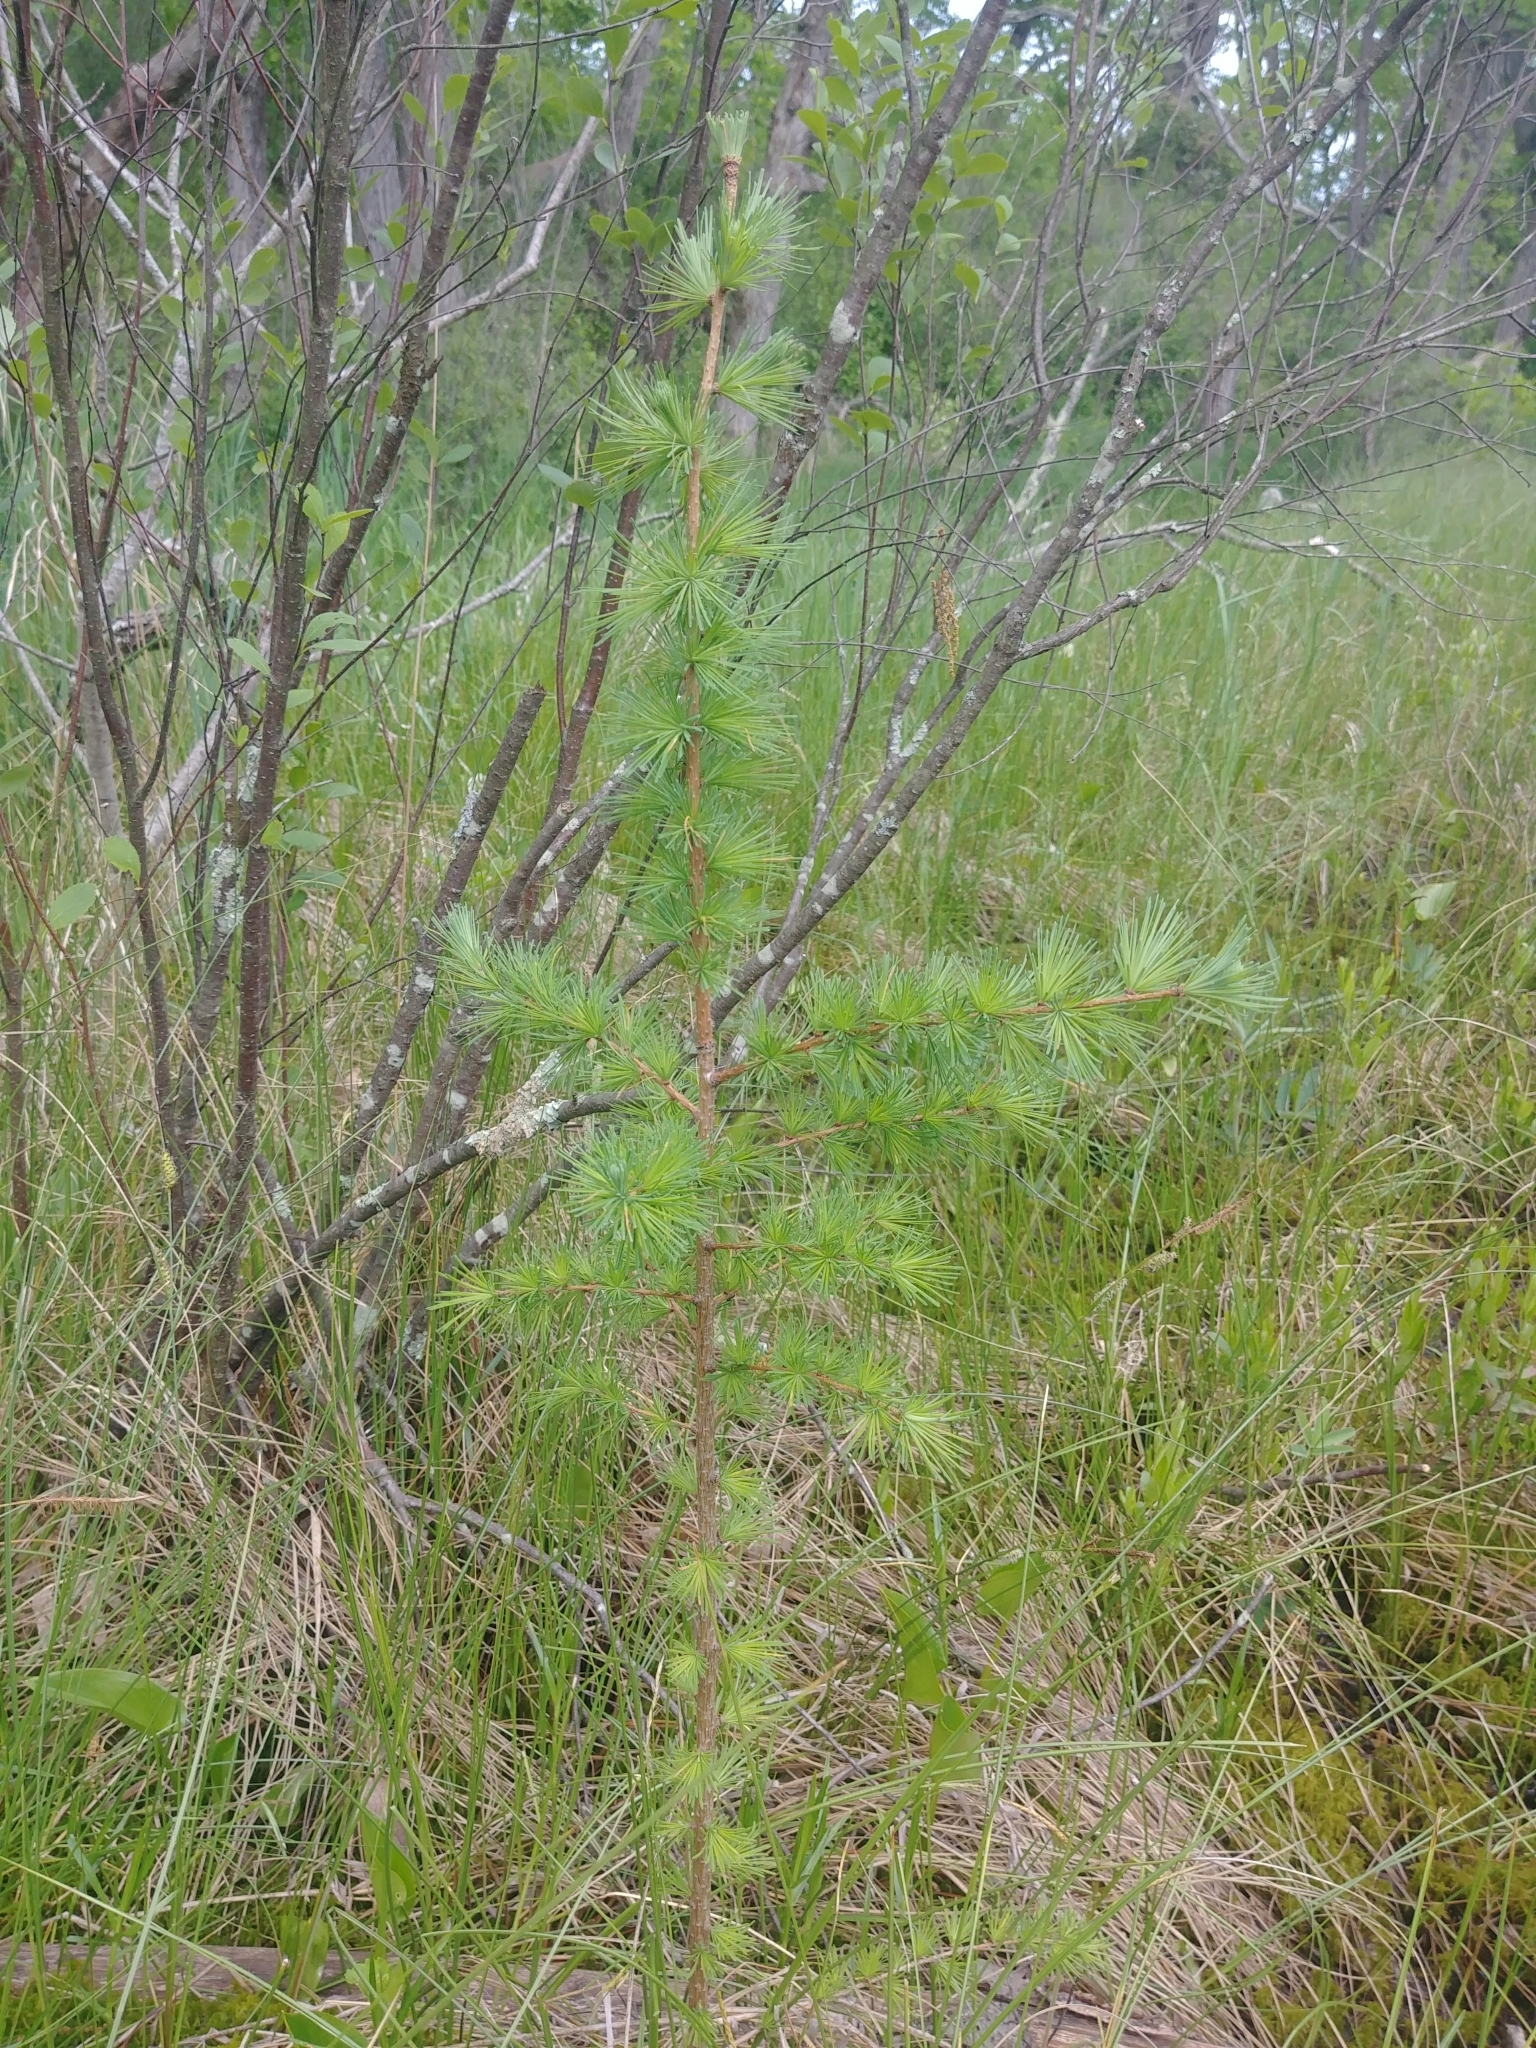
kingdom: Plantae
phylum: Tracheophyta
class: Pinopsida
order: Pinales
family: Pinaceae
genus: Larix
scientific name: Larix laricina
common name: American larch
